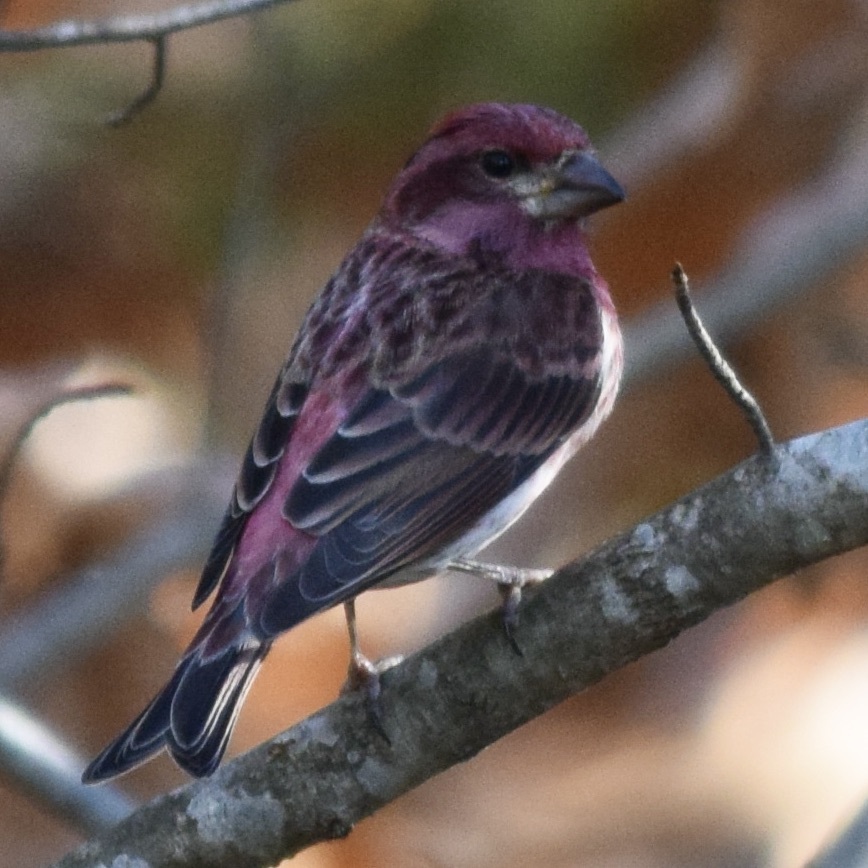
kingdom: Animalia
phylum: Chordata
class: Aves
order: Passeriformes
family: Fringillidae
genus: Haemorhous
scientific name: Haemorhous purpureus
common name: Purple finch
